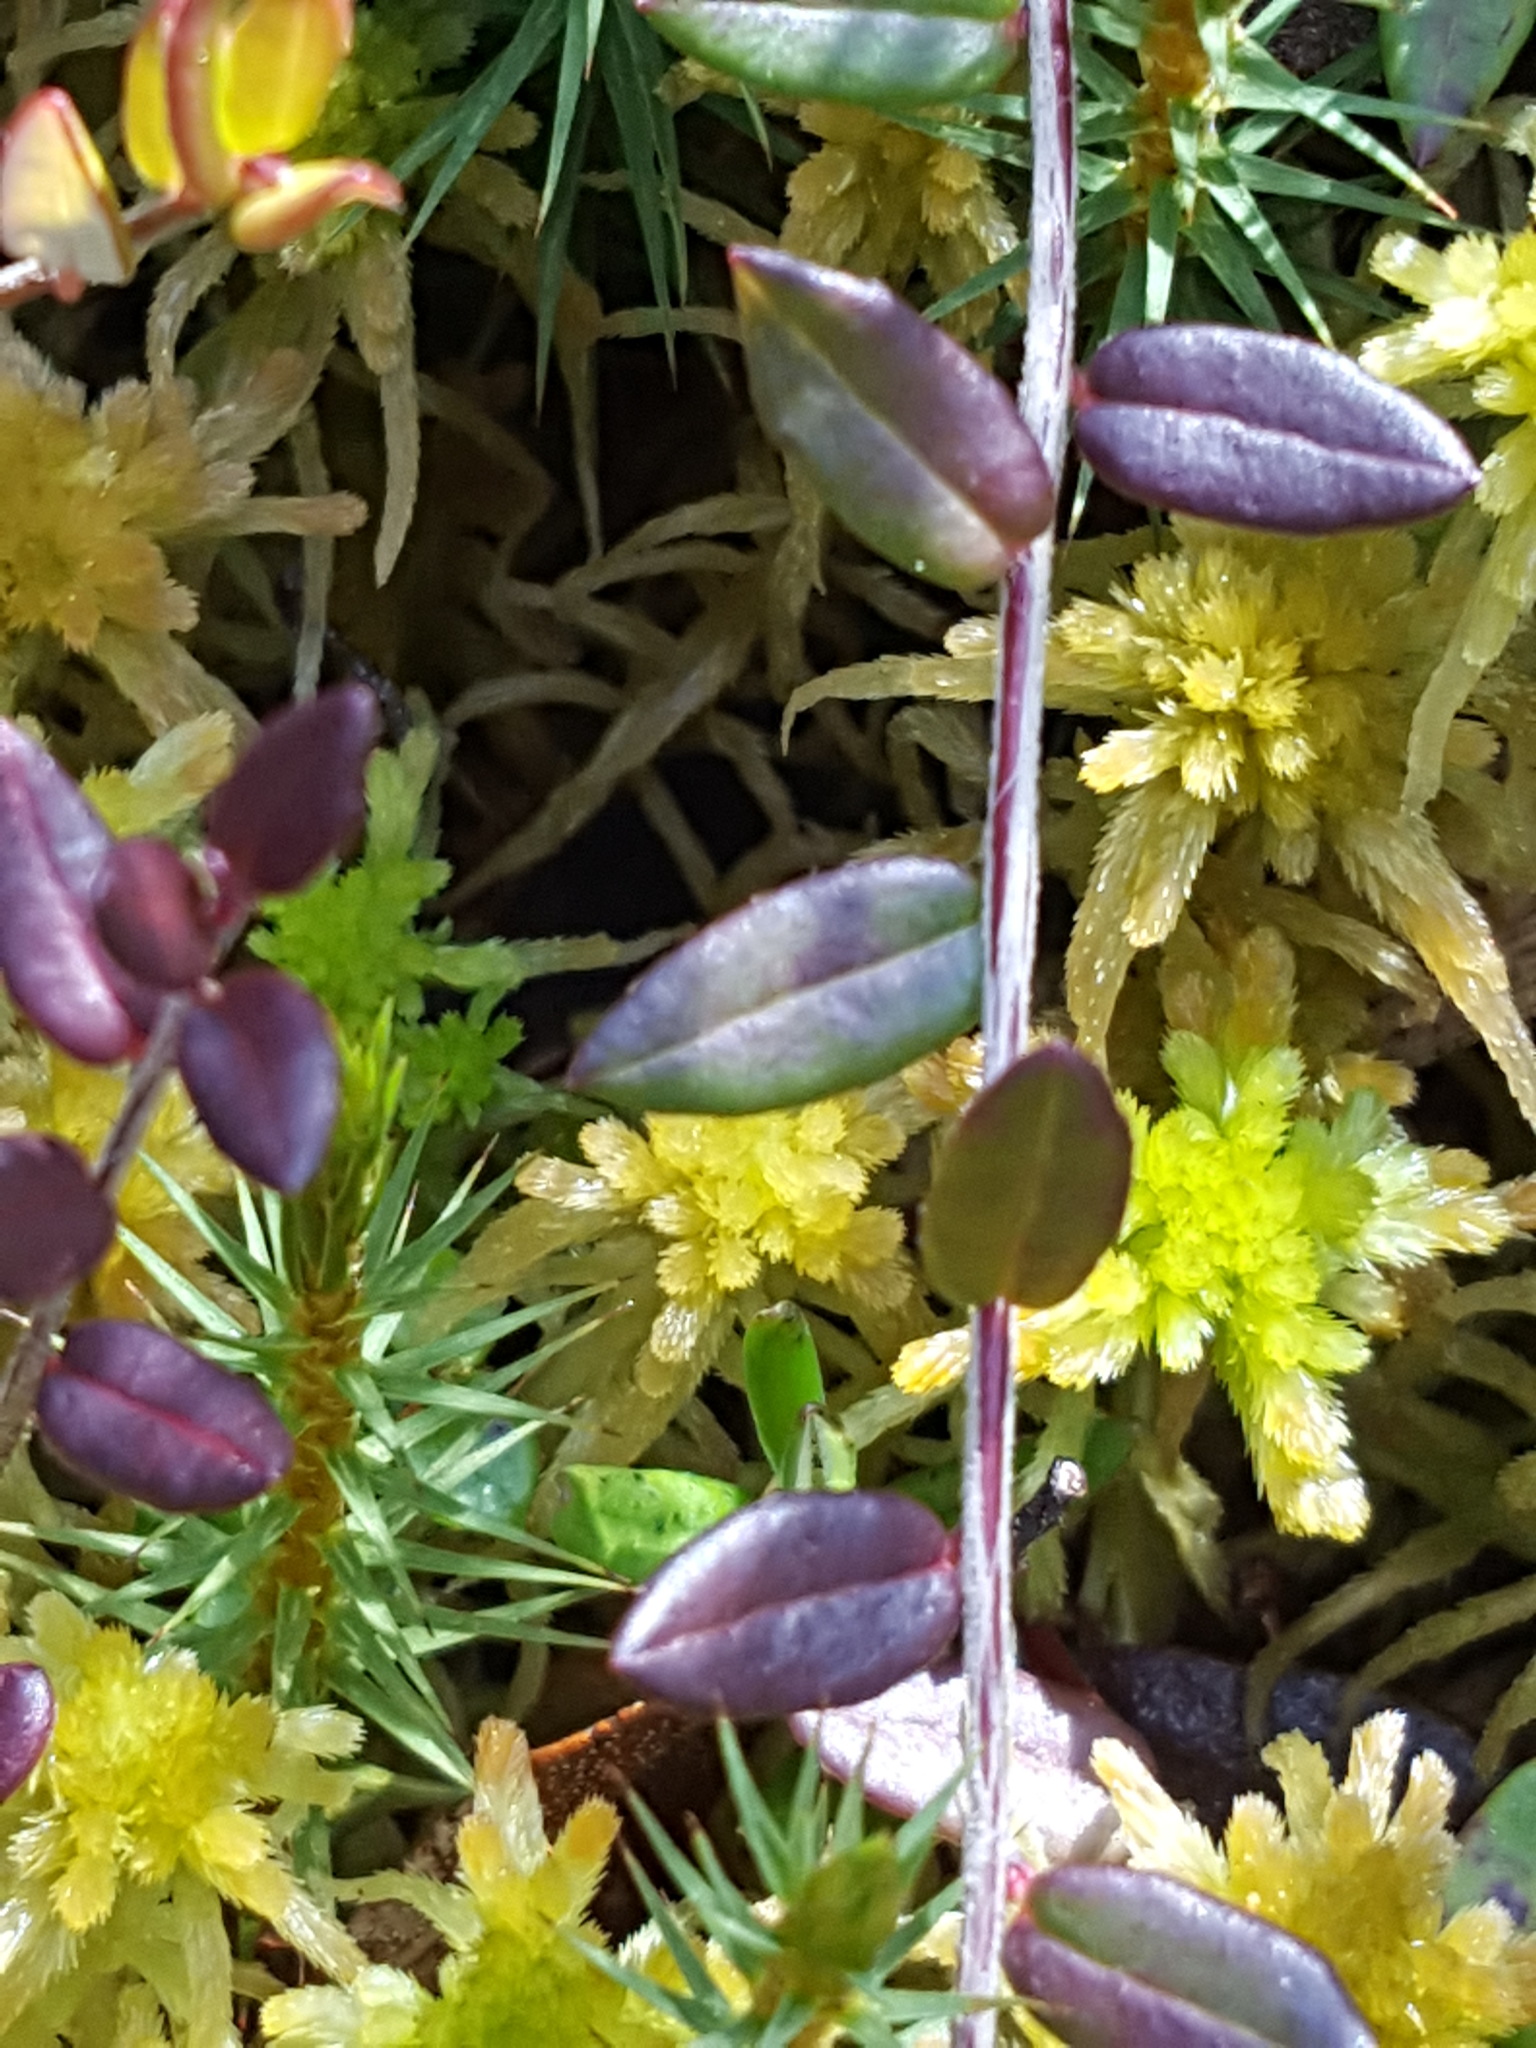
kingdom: Plantae
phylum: Tracheophyta
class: Magnoliopsida
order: Ericales
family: Ericaceae
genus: Vaccinium
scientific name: Vaccinium oxycoccos
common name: Cranberry
